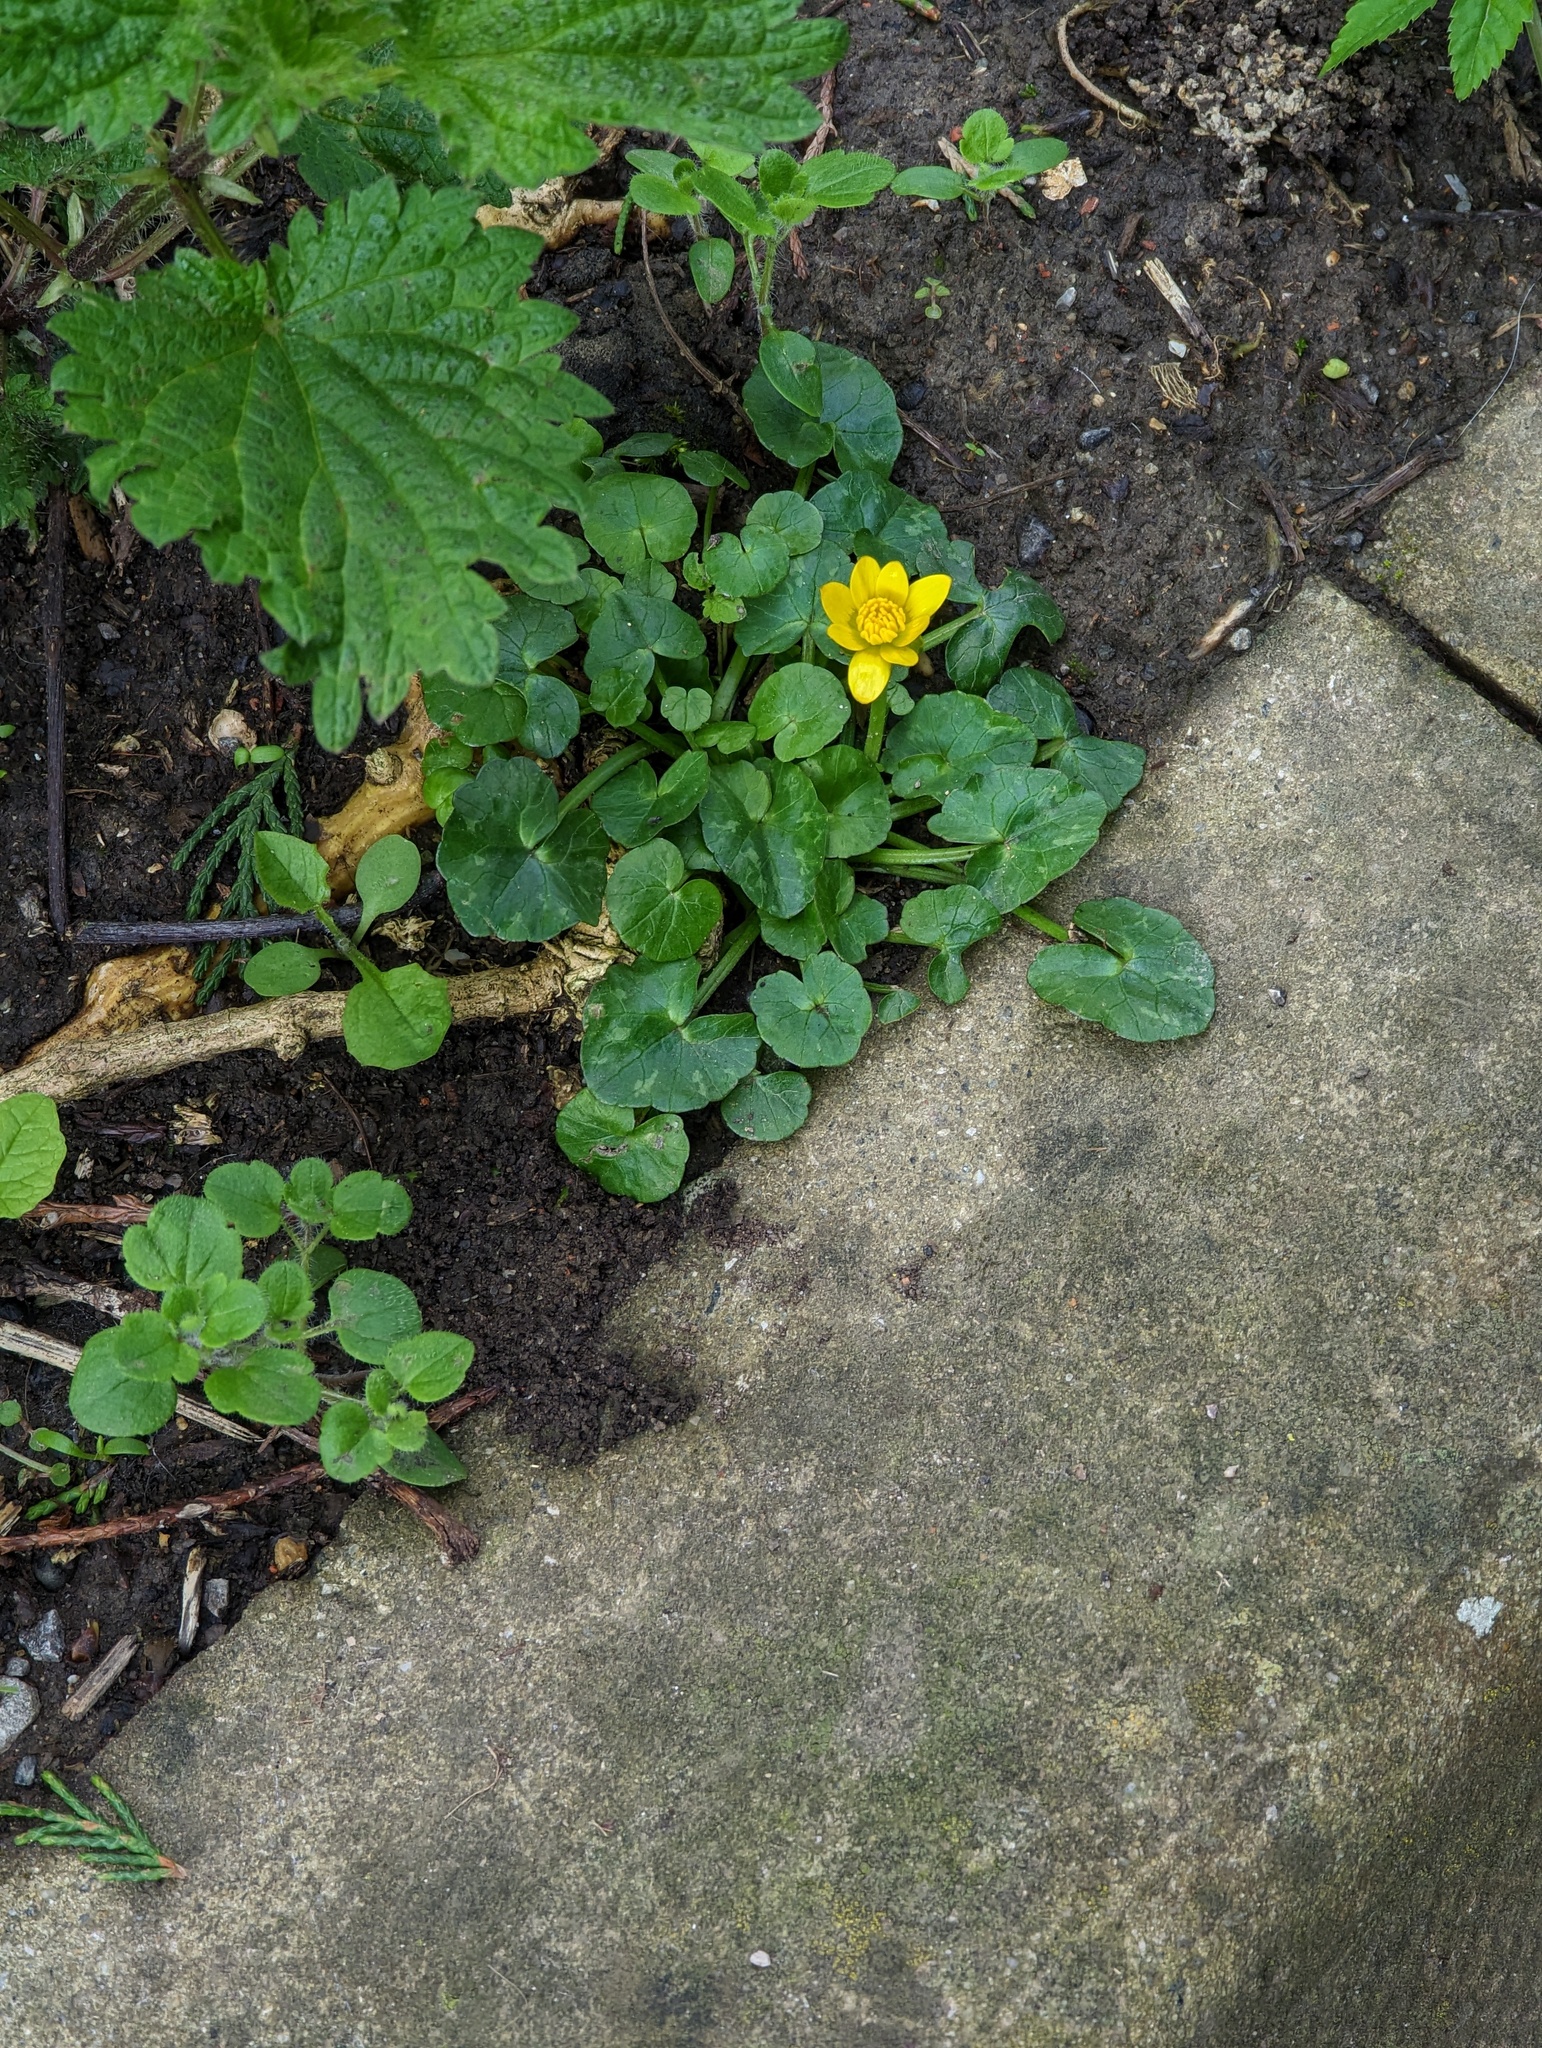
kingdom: Plantae
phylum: Tracheophyta
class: Magnoliopsida
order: Ranunculales
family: Ranunculaceae
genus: Ficaria
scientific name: Ficaria verna
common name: Lesser celandine
